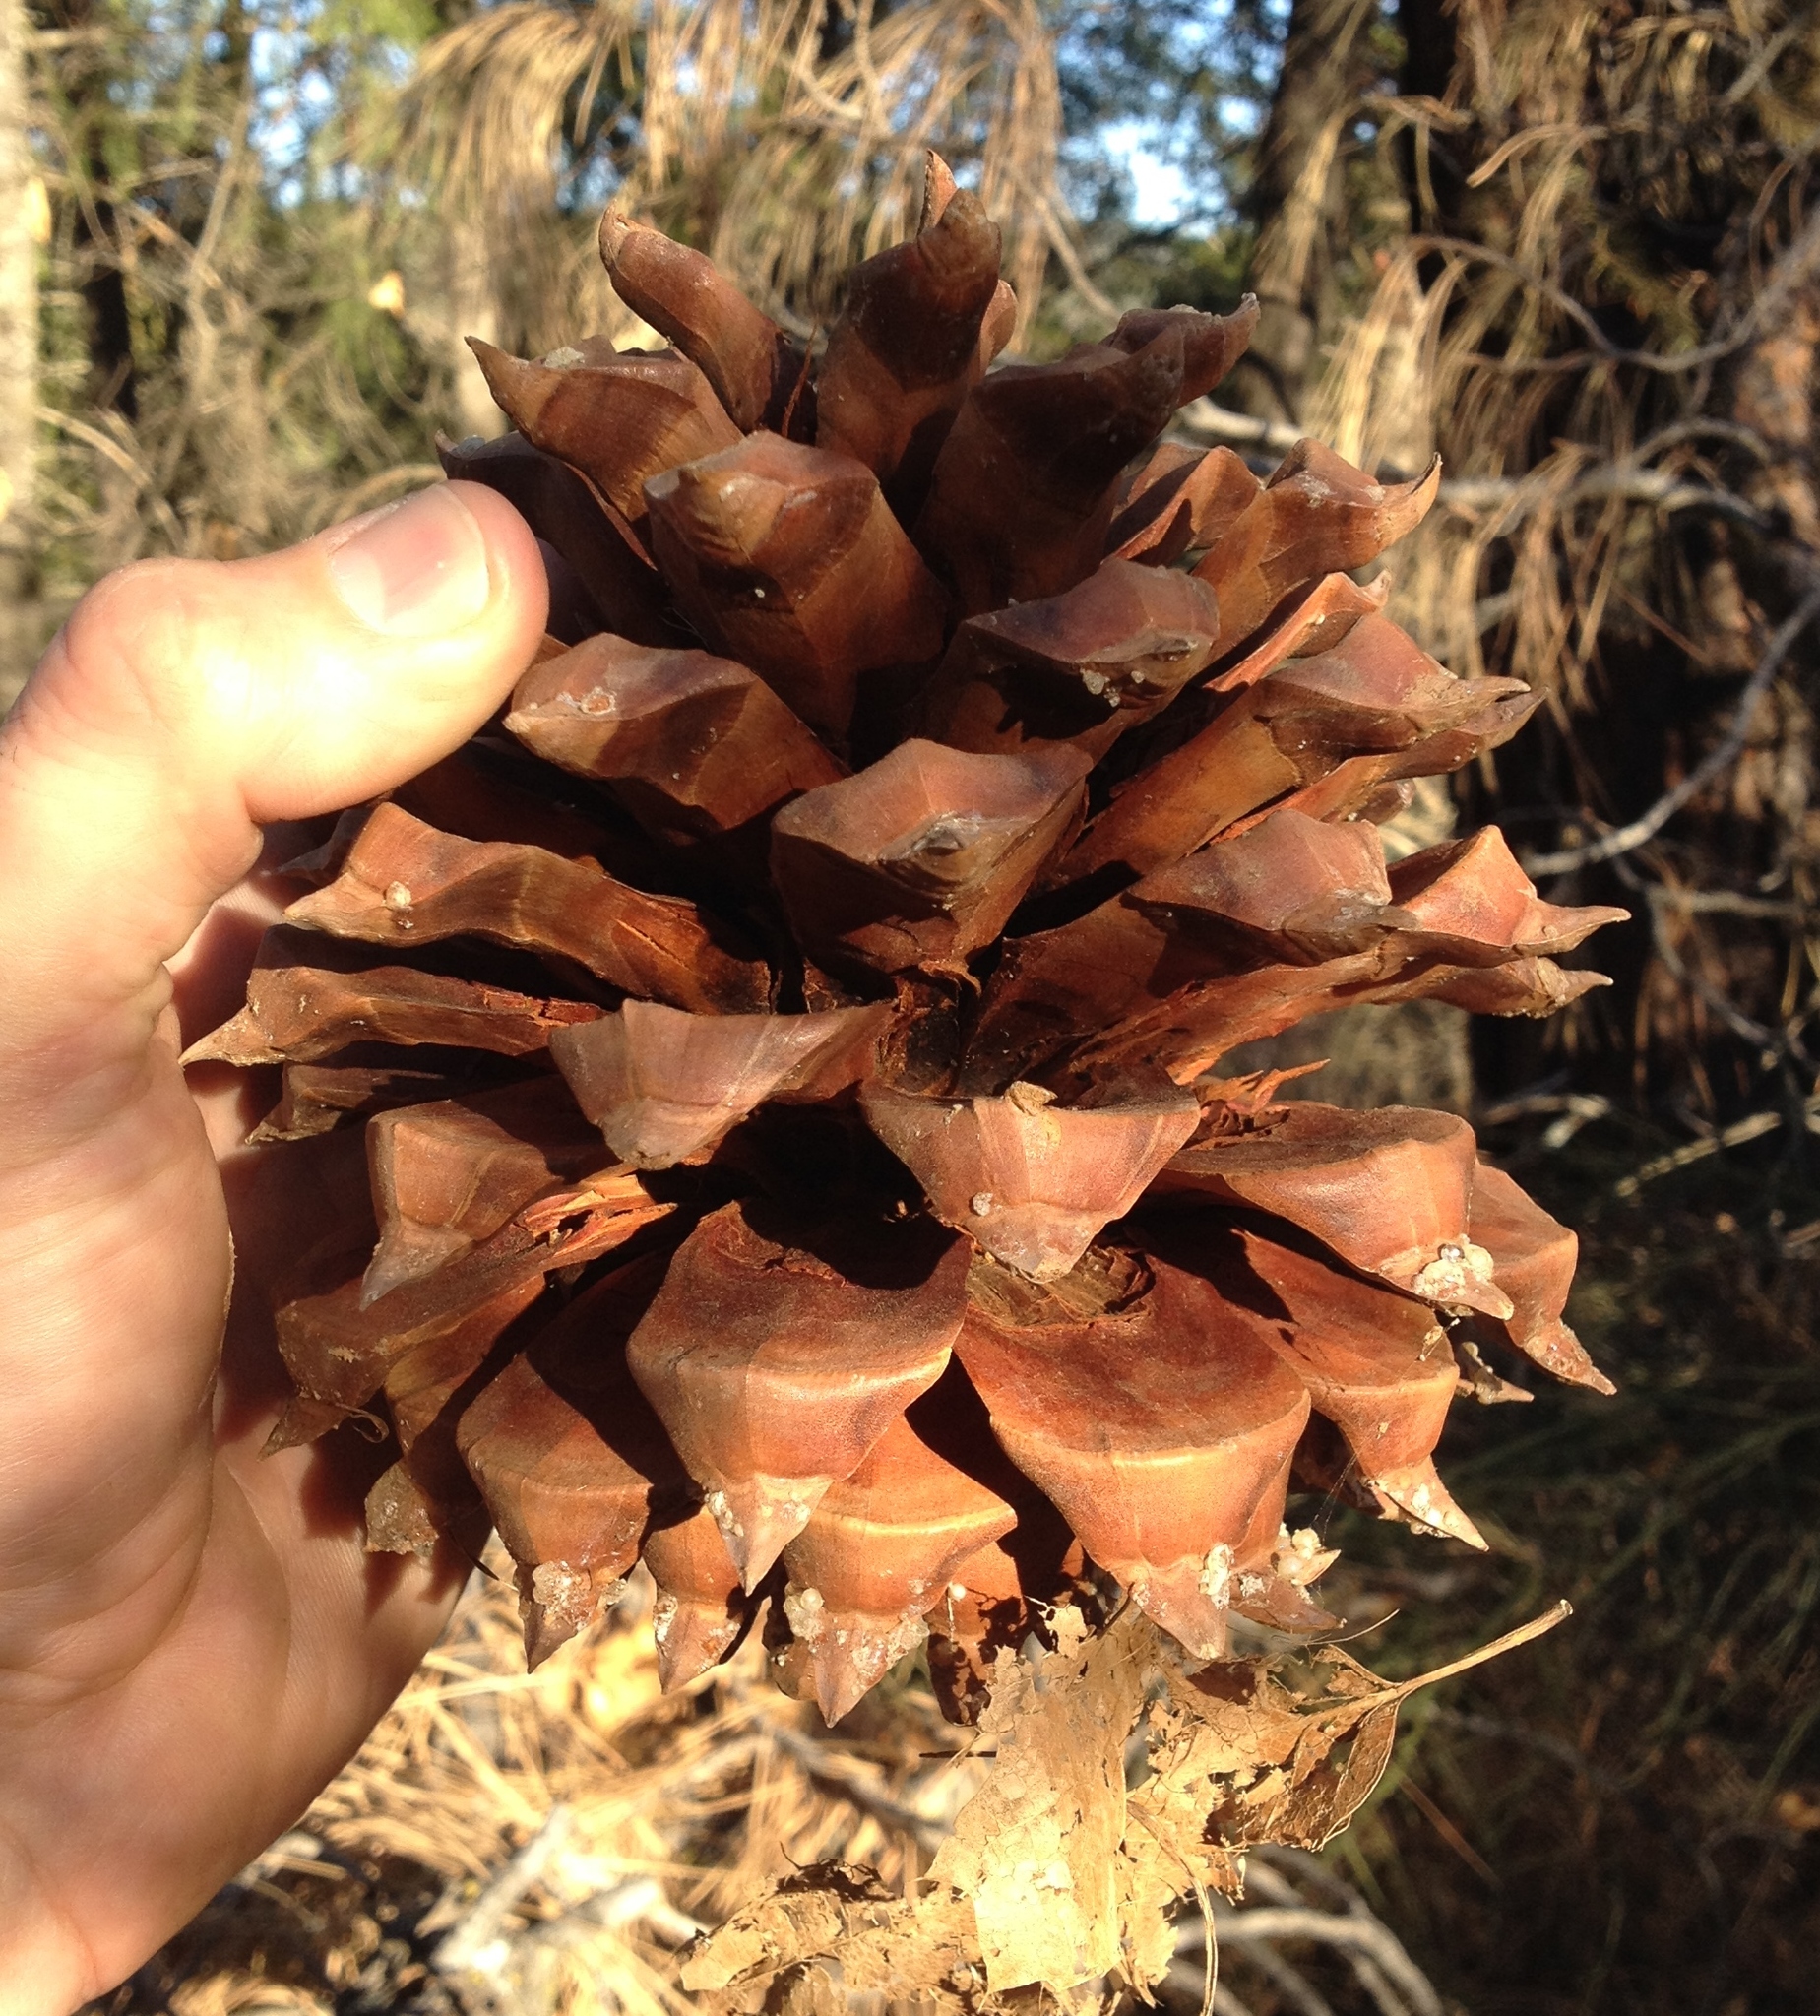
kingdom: Plantae
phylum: Tracheophyta
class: Pinopsida
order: Pinales
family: Pinaceae
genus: Pinus
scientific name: Pinus sabiniana
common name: Bull pine
